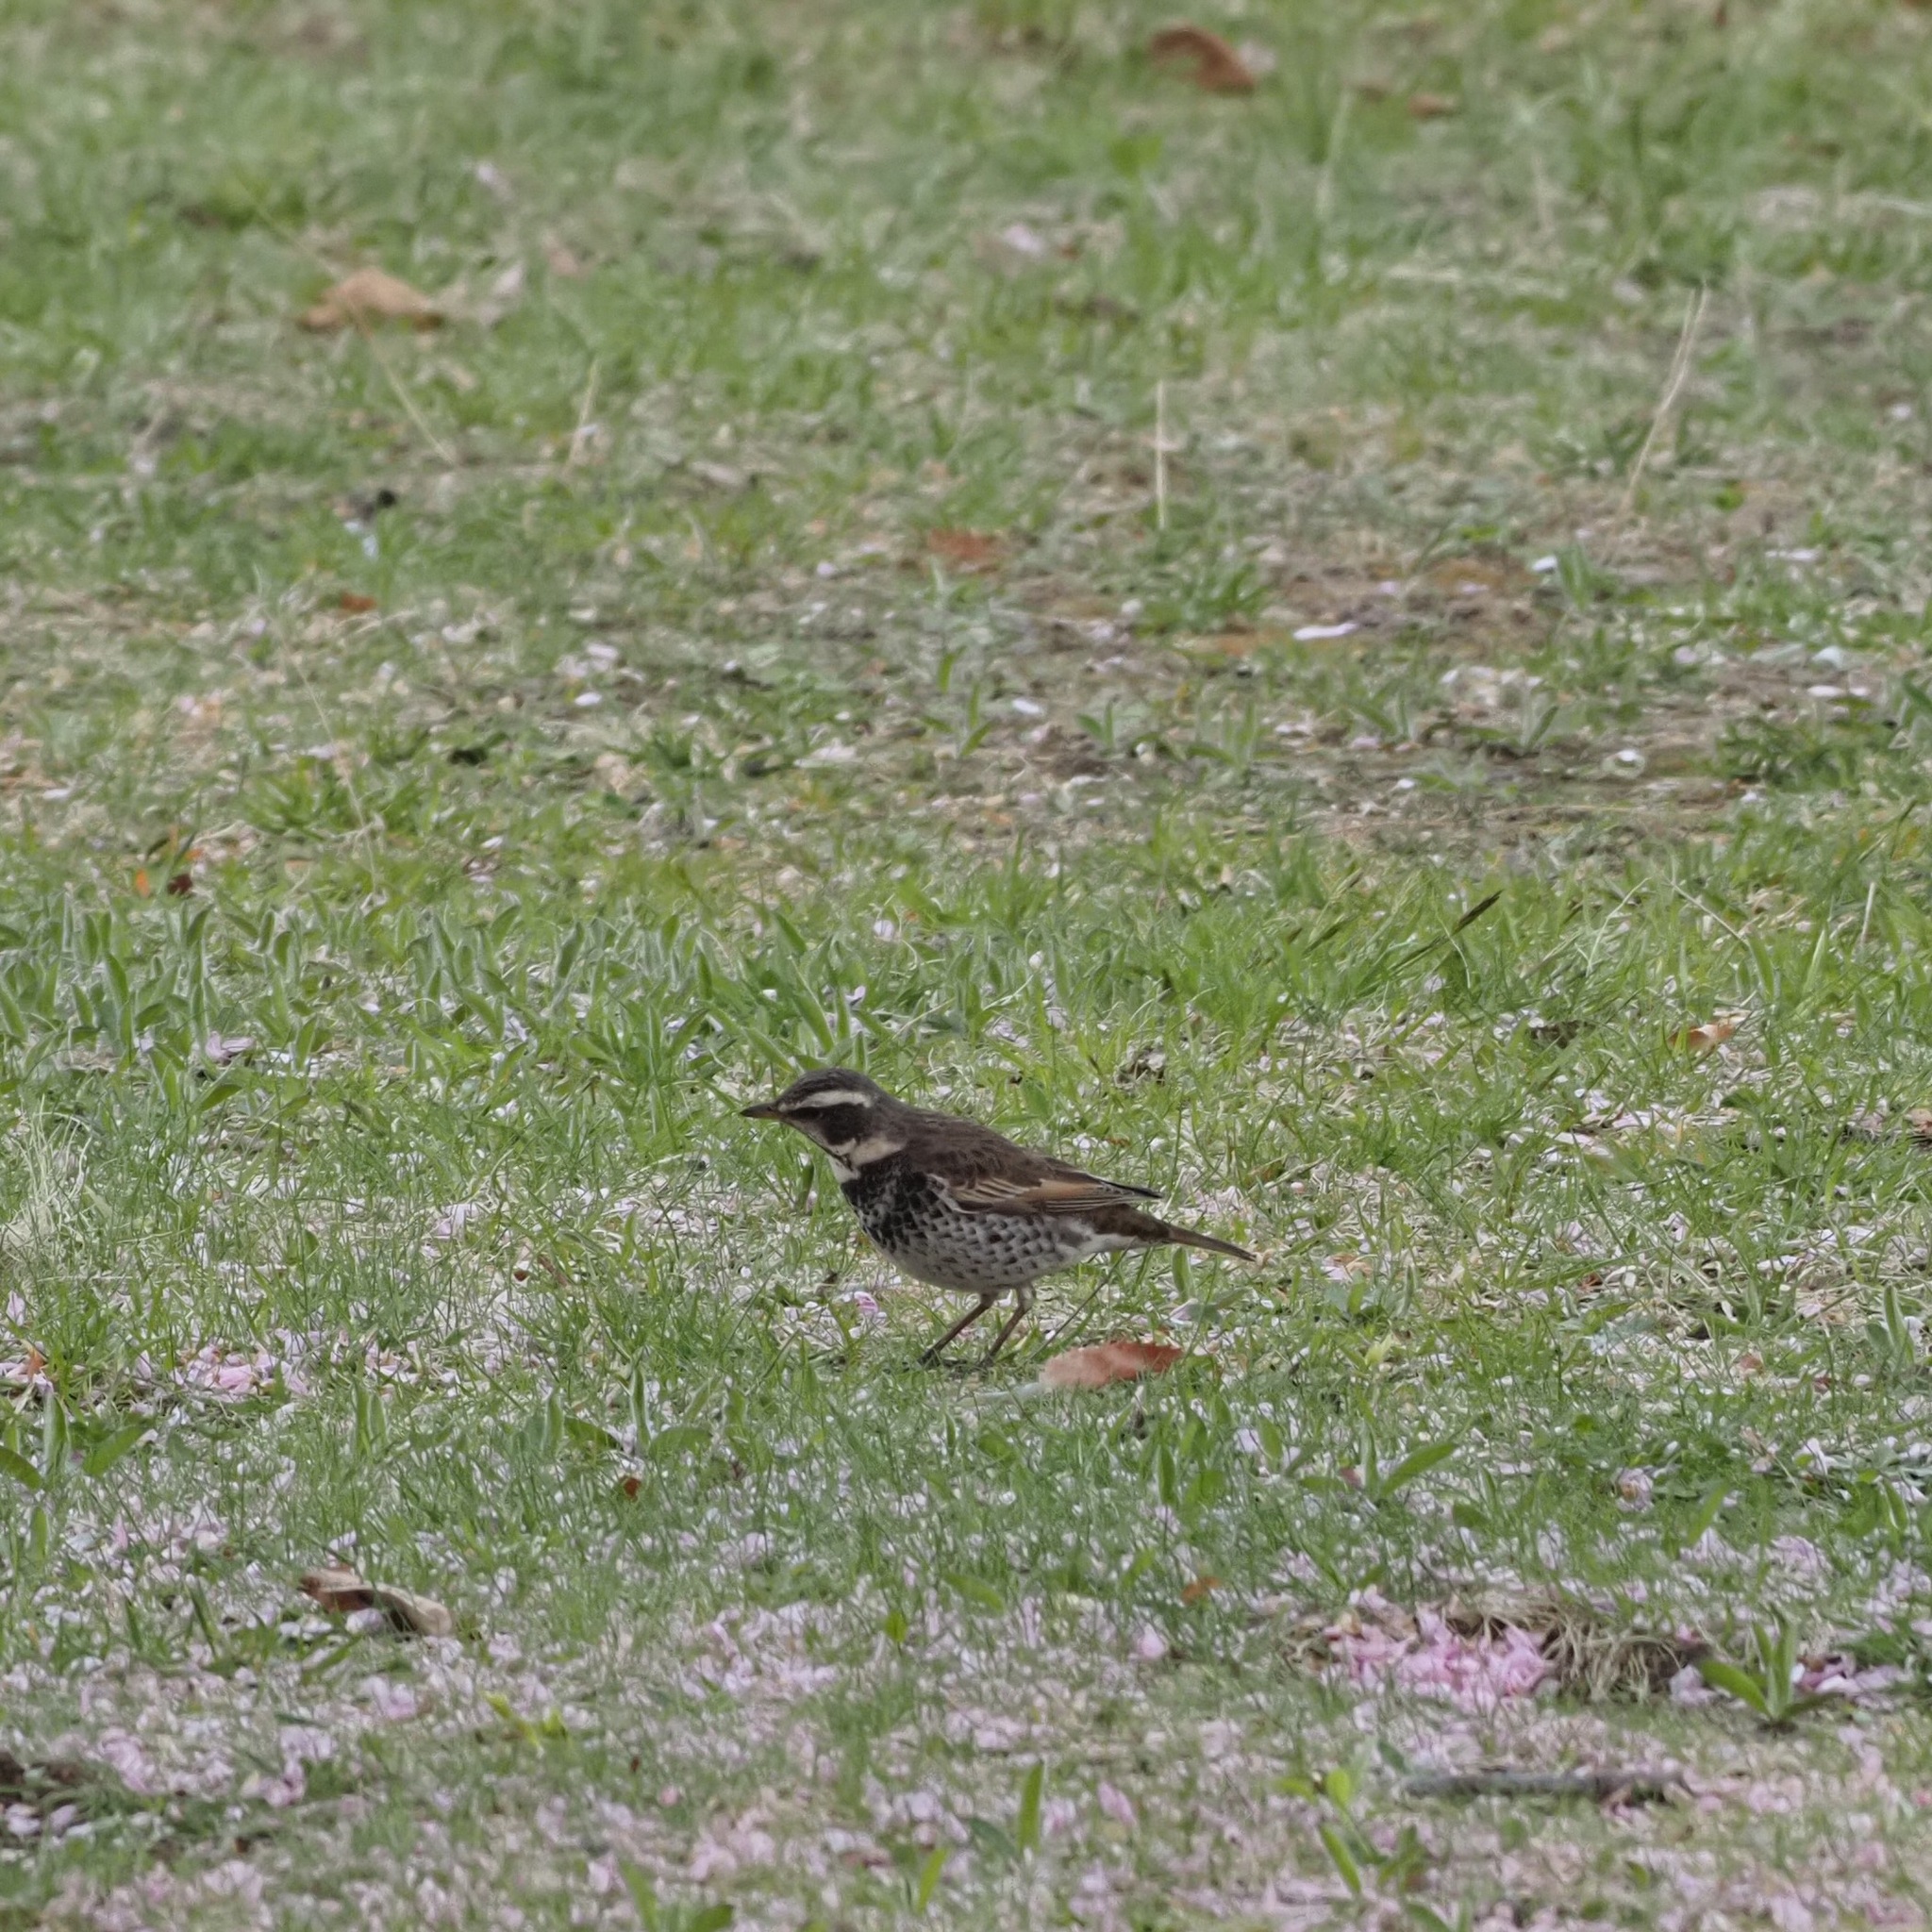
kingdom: Animalia
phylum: Chordata
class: Aves
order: Passeriformes
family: Turdidae
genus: Turdus
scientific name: Turdus eunomus
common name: Dusky thrush
